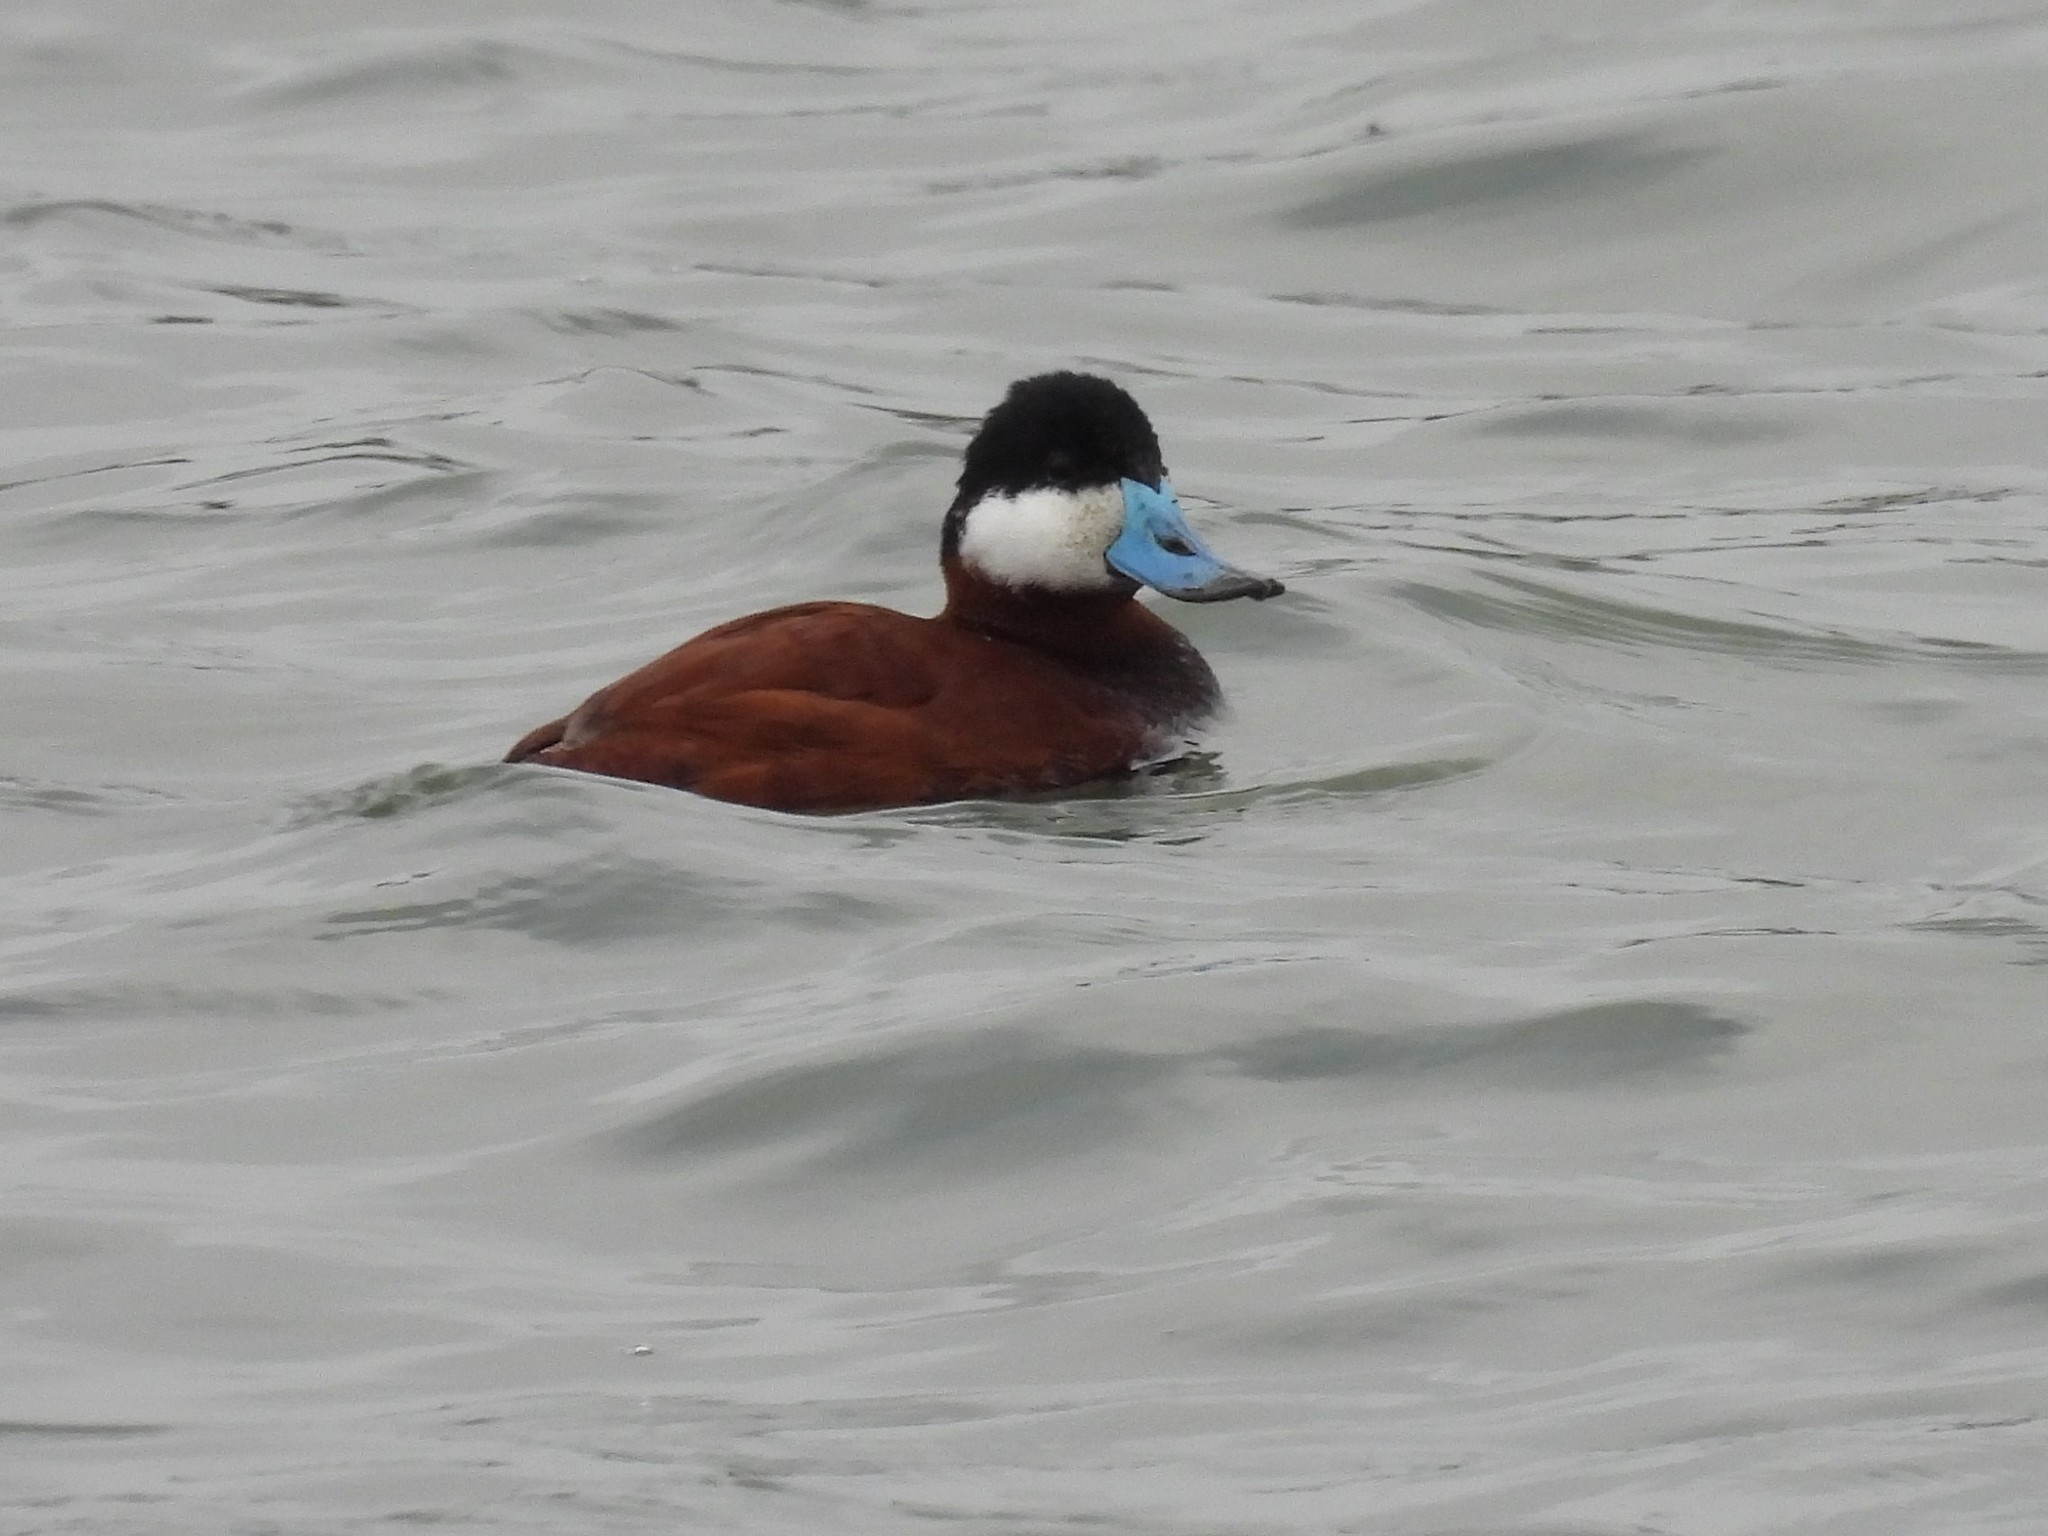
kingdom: Animalia
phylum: Chordata
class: Aves
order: Anseriformes
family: Anatidae
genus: Oxyura
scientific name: Oxyura jamaicensis
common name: Ruddy duck
